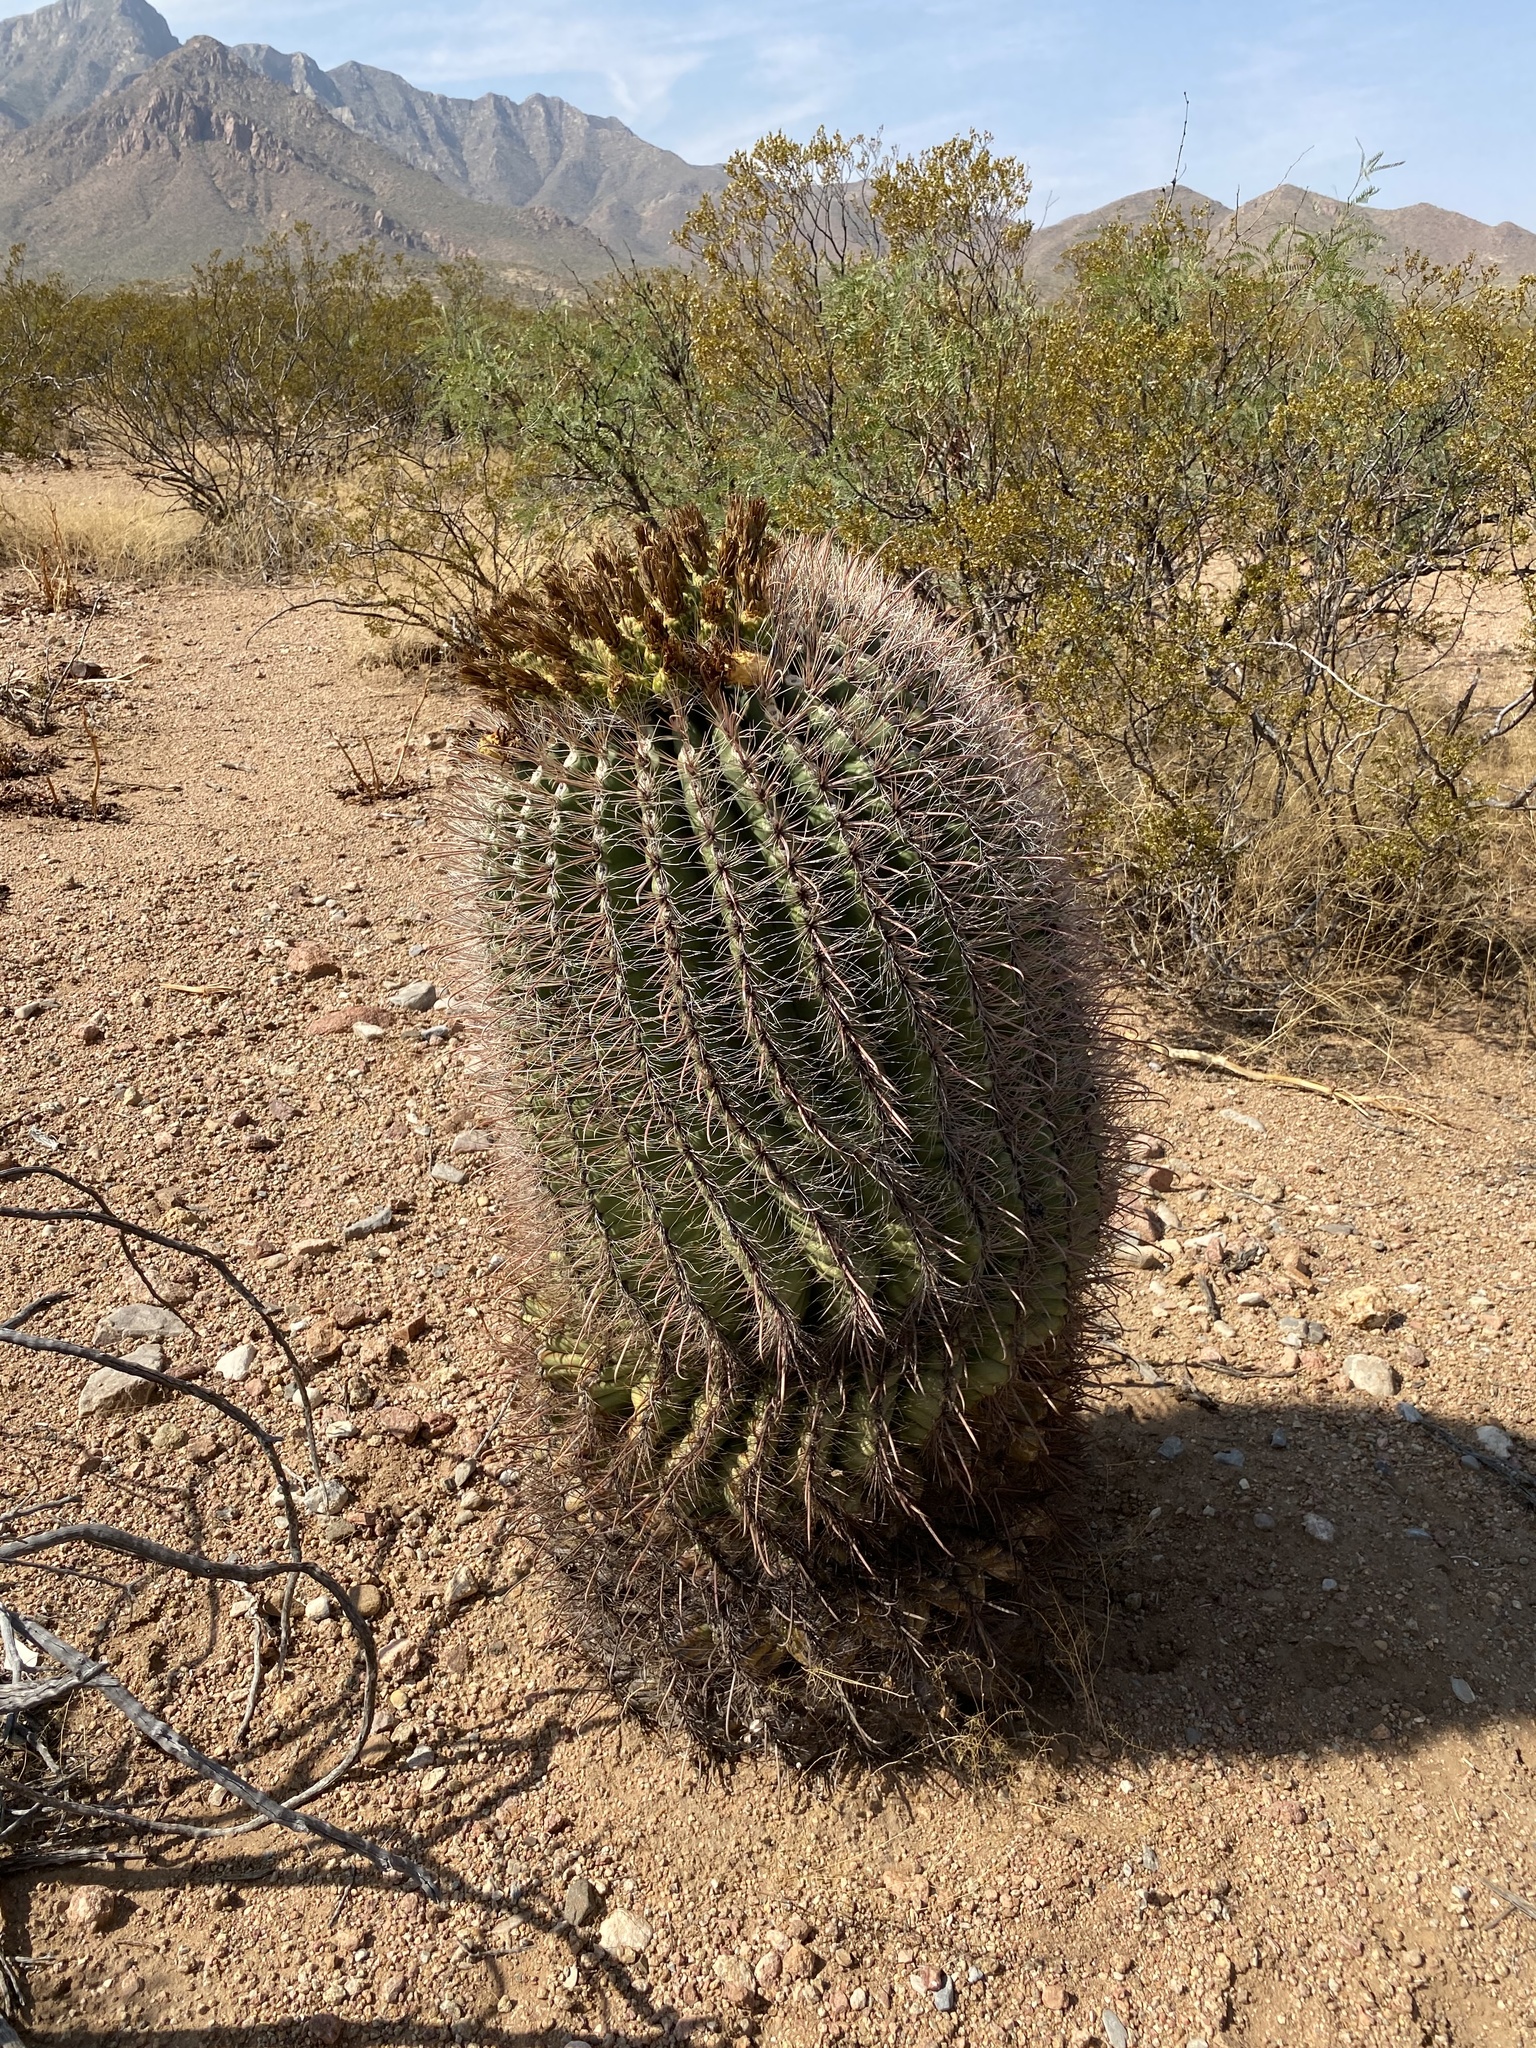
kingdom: Plantae
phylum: Tracheophyta
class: Magnoliopsida
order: Caryophyllales
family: Cactaceae
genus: Ferocactus
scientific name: Ferocactus wislizeni
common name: Candy barrel cactus
